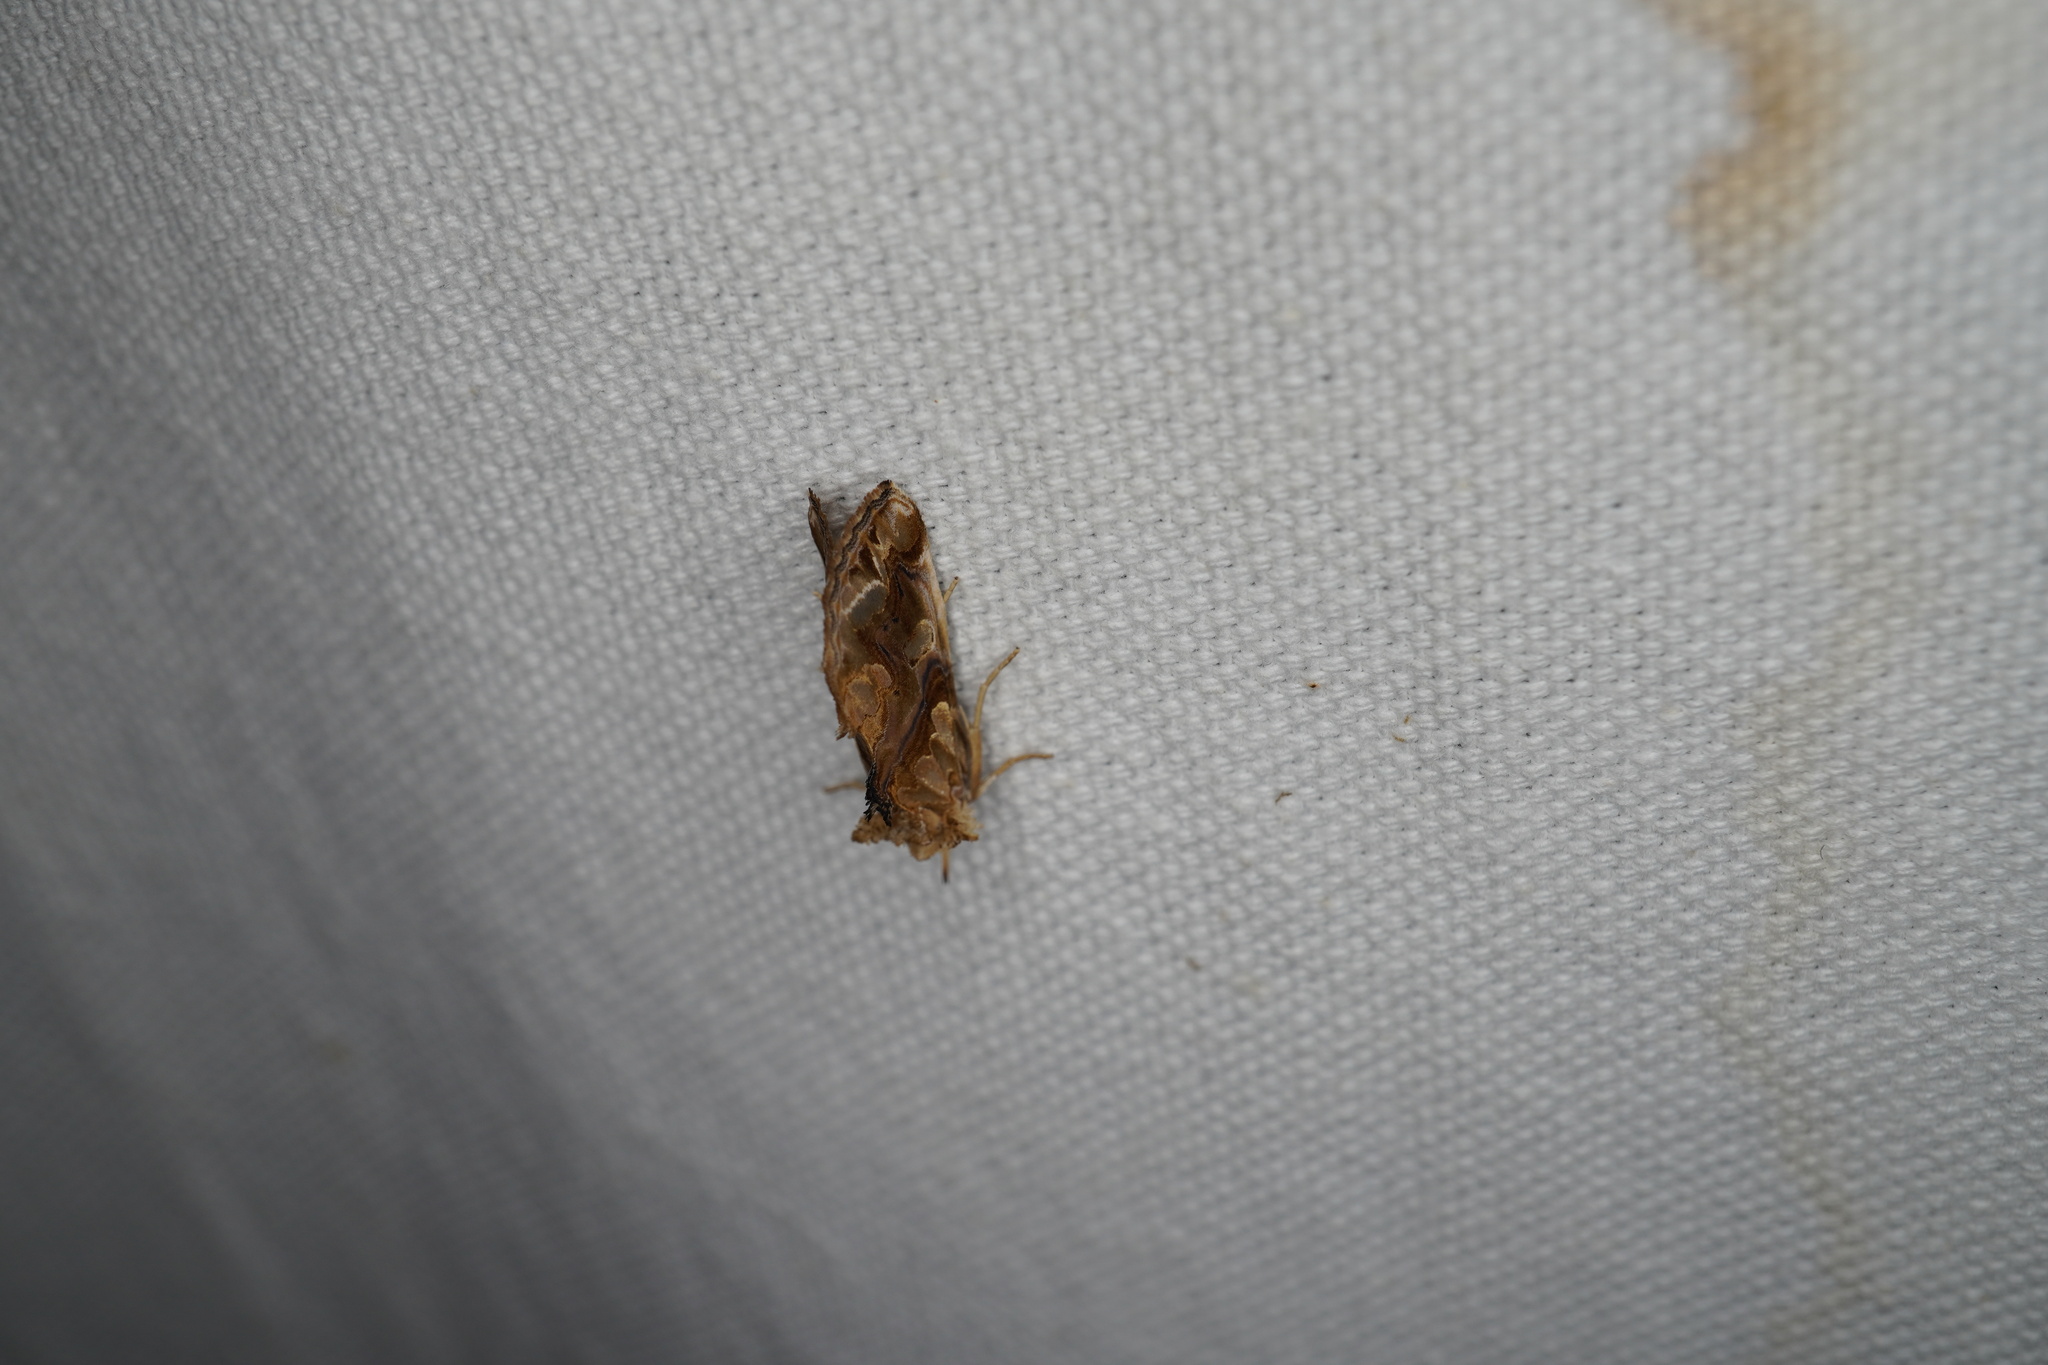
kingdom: Animalia
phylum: Arthropoda
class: Insecta
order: Lepidoptera
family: Erebidae
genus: Plusiodonta
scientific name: Plusiodonta compressipalpis
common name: Moonseed moth
